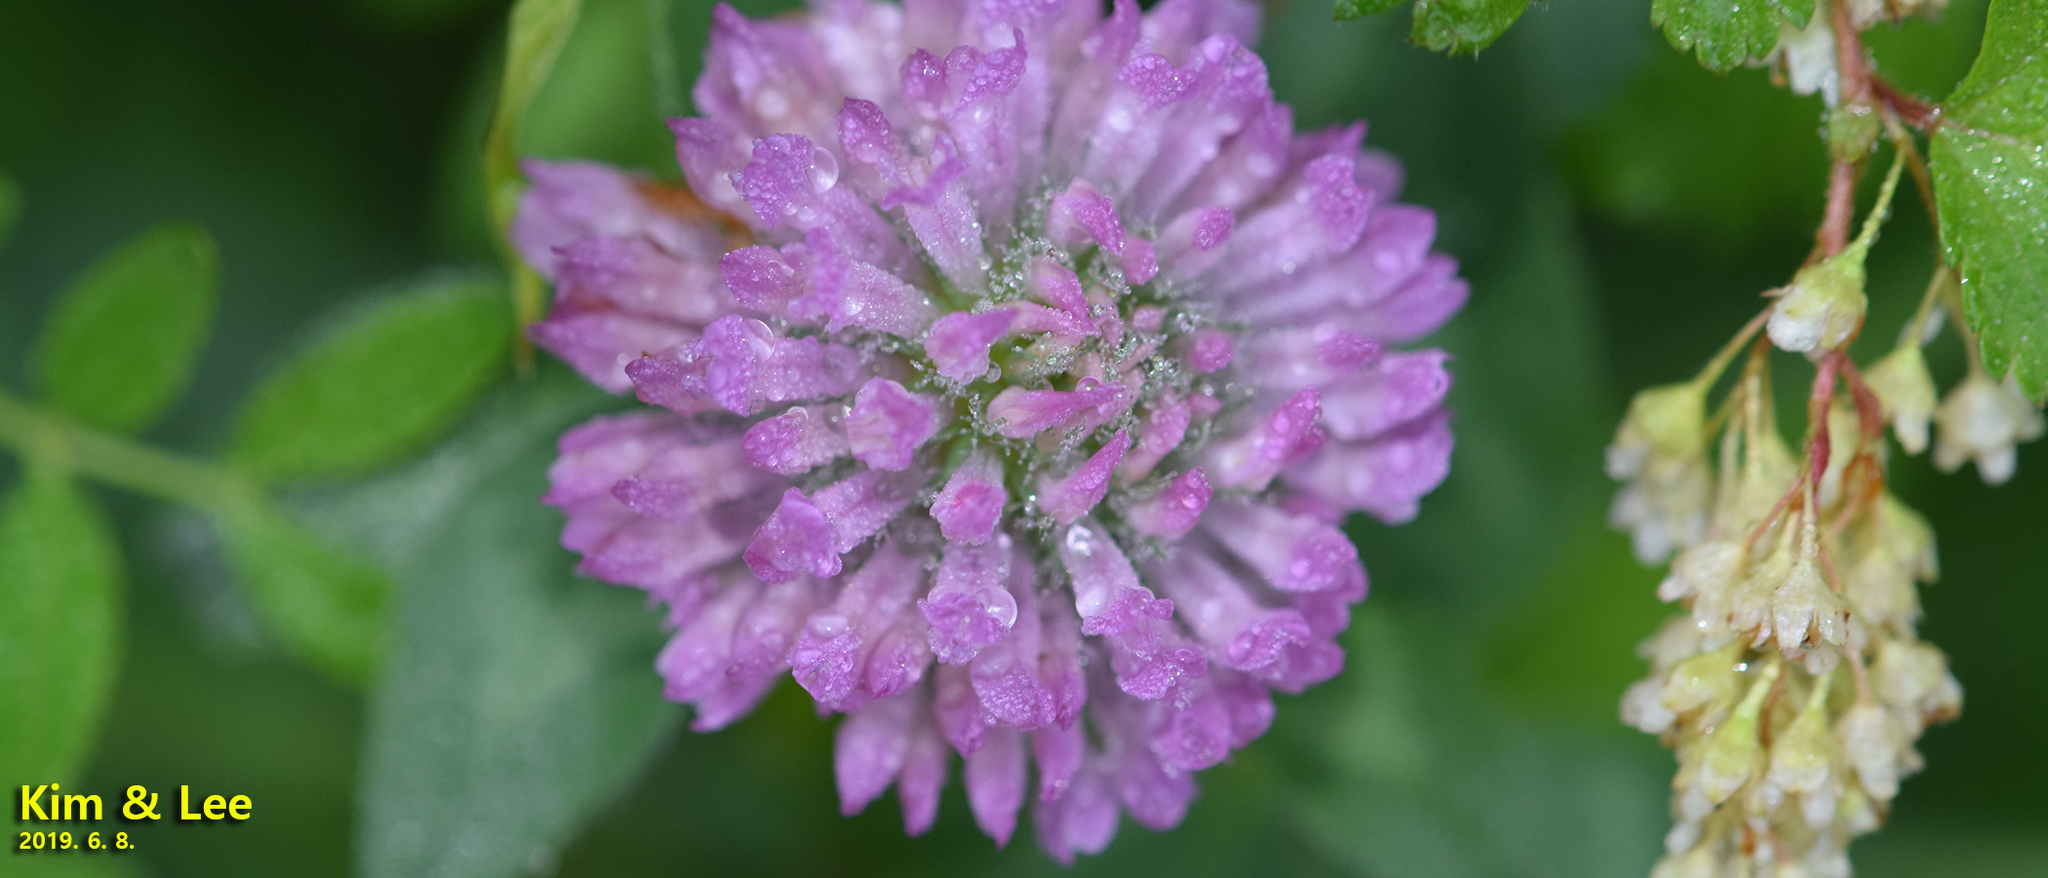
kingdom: Plantae
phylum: Tracheophyta
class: Magnoliopsida
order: Fabales
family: Fabaceae
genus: Trifolium
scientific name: Trifolium pratense
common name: Red clover
